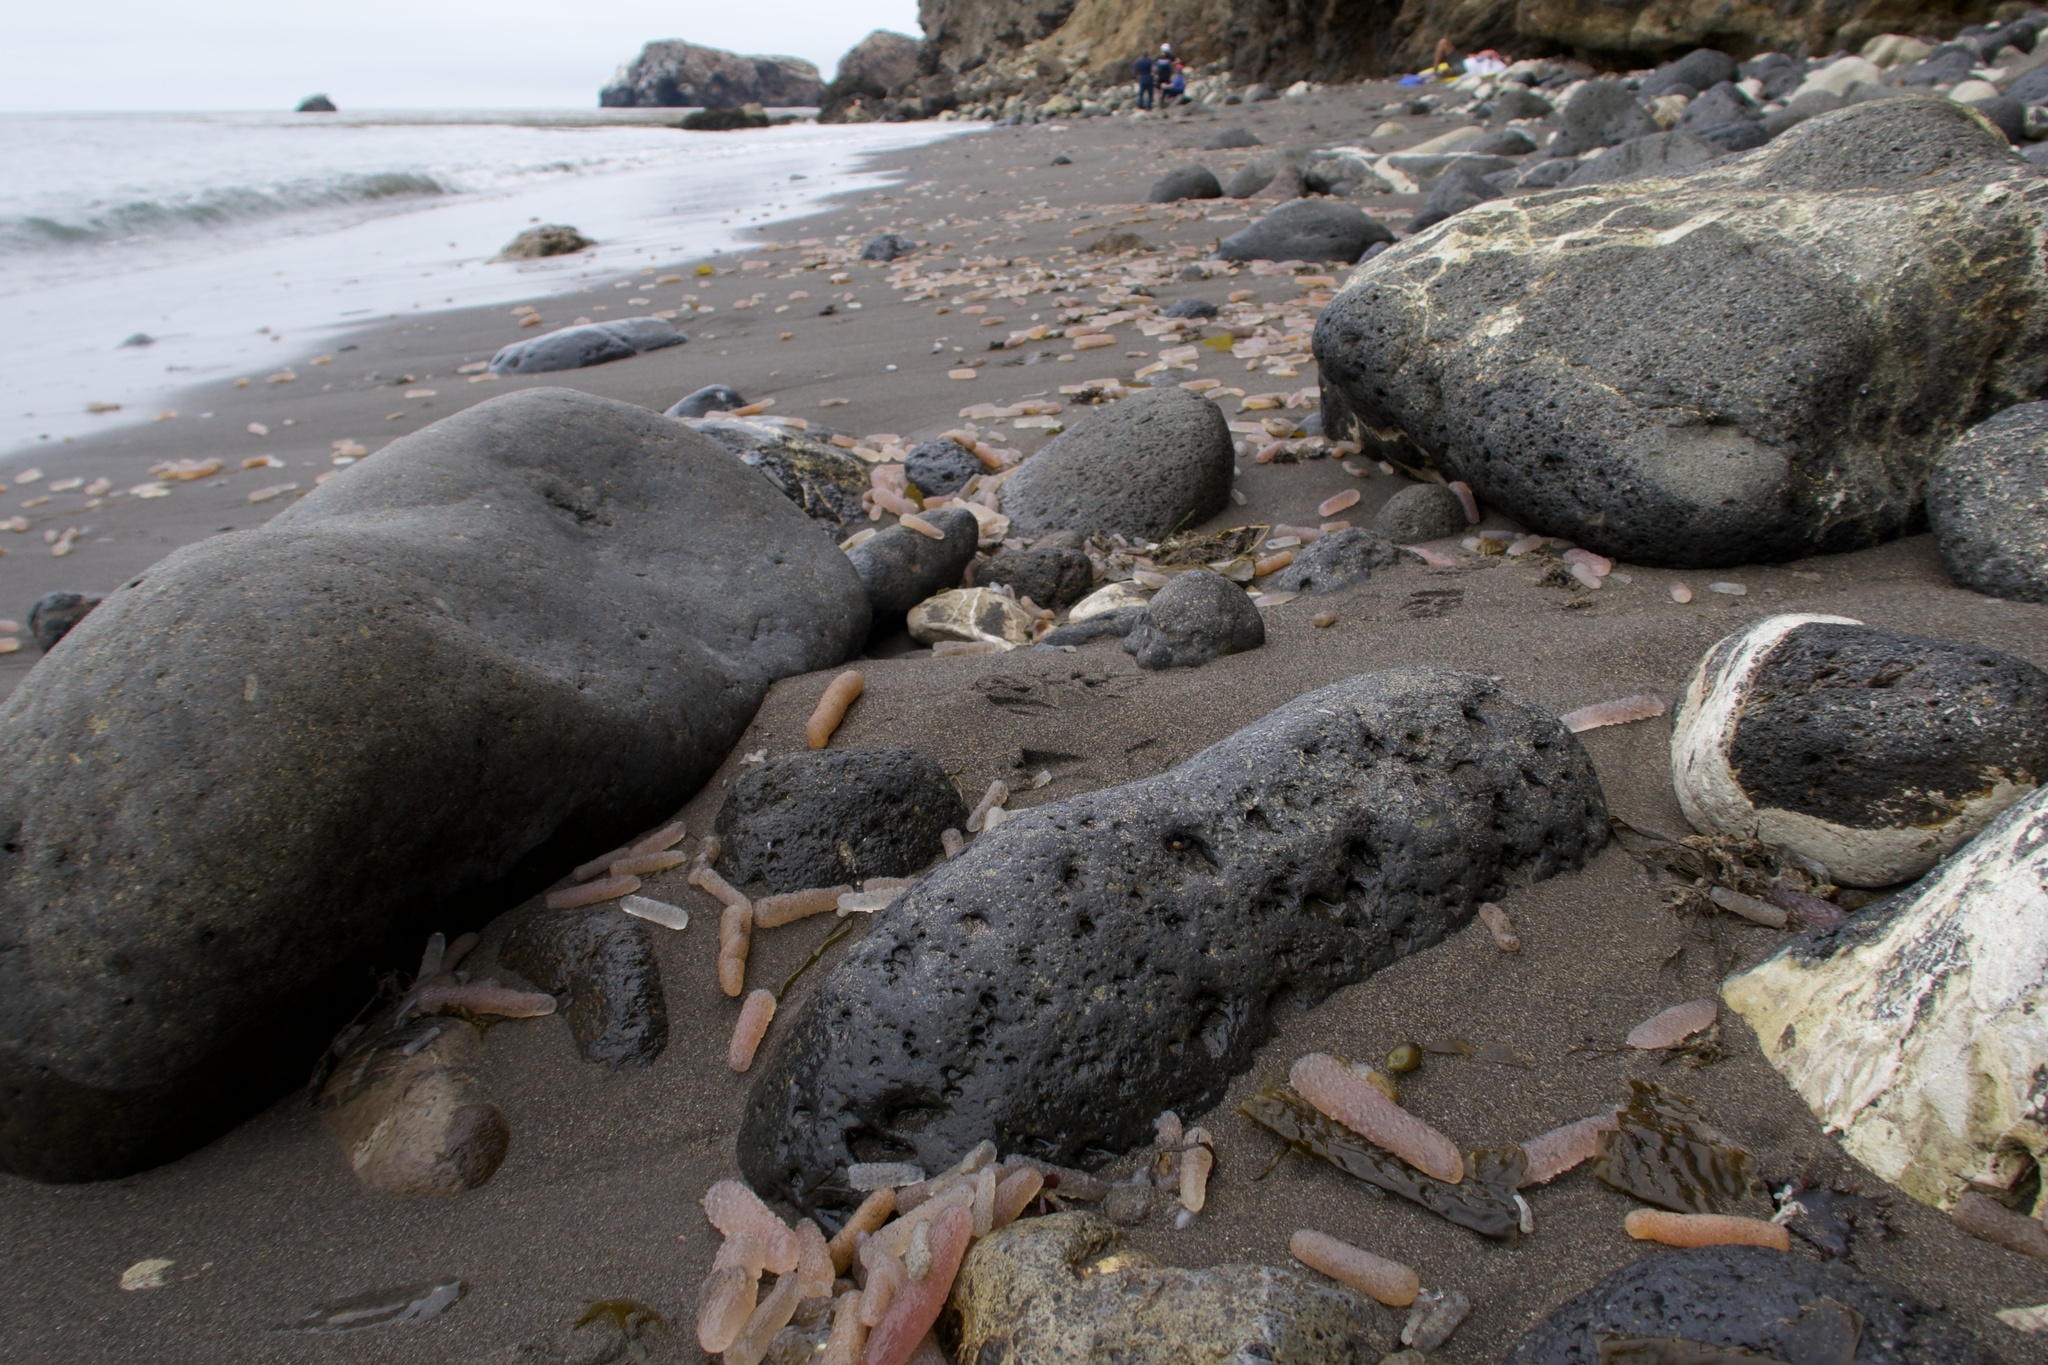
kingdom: Animalia
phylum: Chordata
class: Thaliacea
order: Pyrosomatida
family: Pyrosomatidae
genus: Pyrosoma
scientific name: Pyrosoma atlanticum
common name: Atlantic pyrosomes
